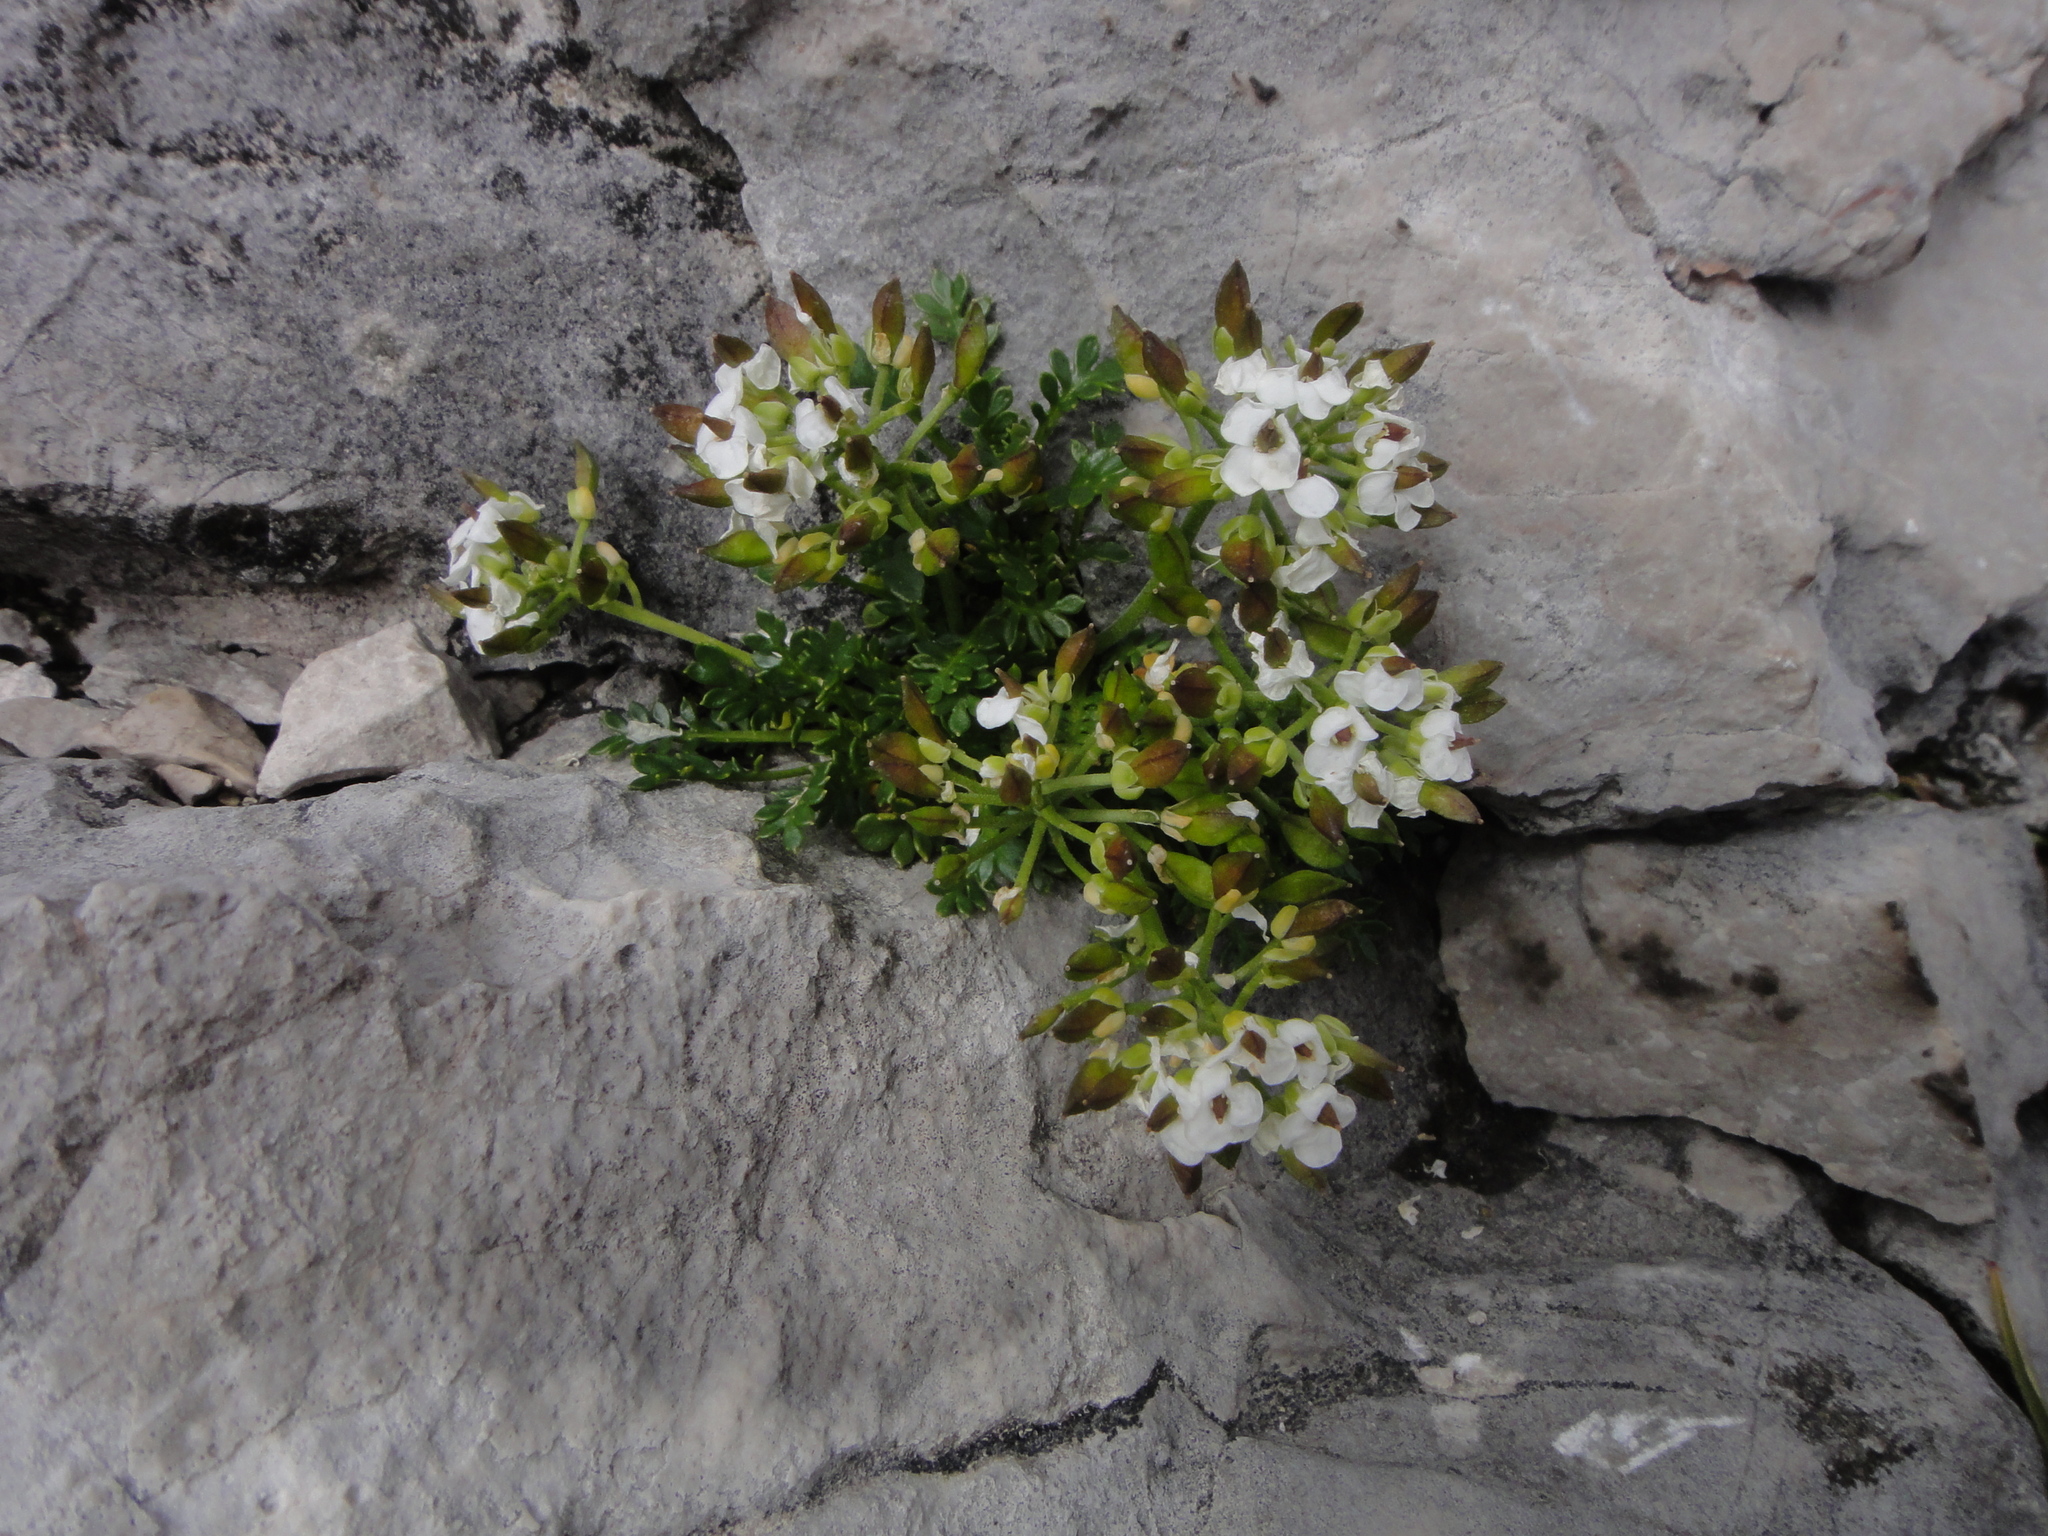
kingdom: Plantae
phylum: Tracheophyta
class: Magnoliopsida
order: Brassicales
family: Brassicaceae
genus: Hornungia
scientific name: Hornungia alpina
